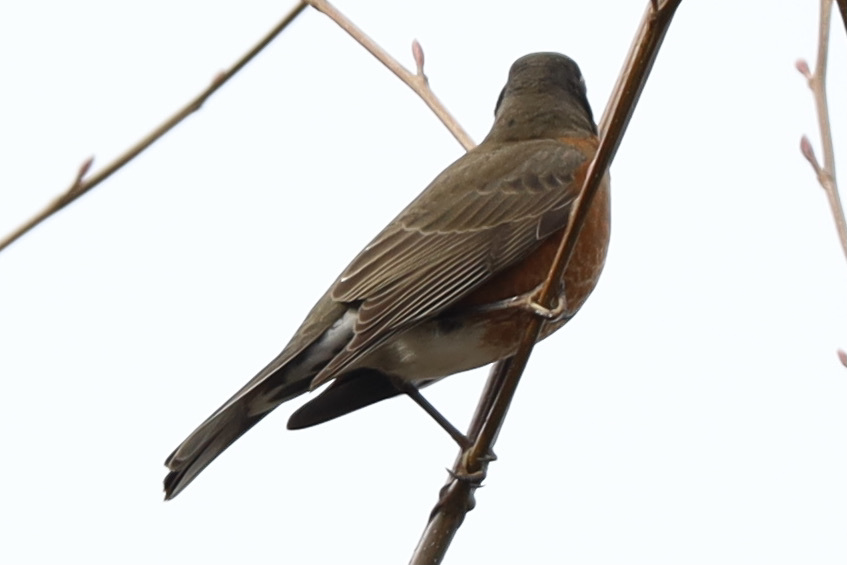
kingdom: Animalia
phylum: Chordata
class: Aves
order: Passeriformes
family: Turdidae
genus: Turdus
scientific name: Turdus migratorius
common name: American robin
